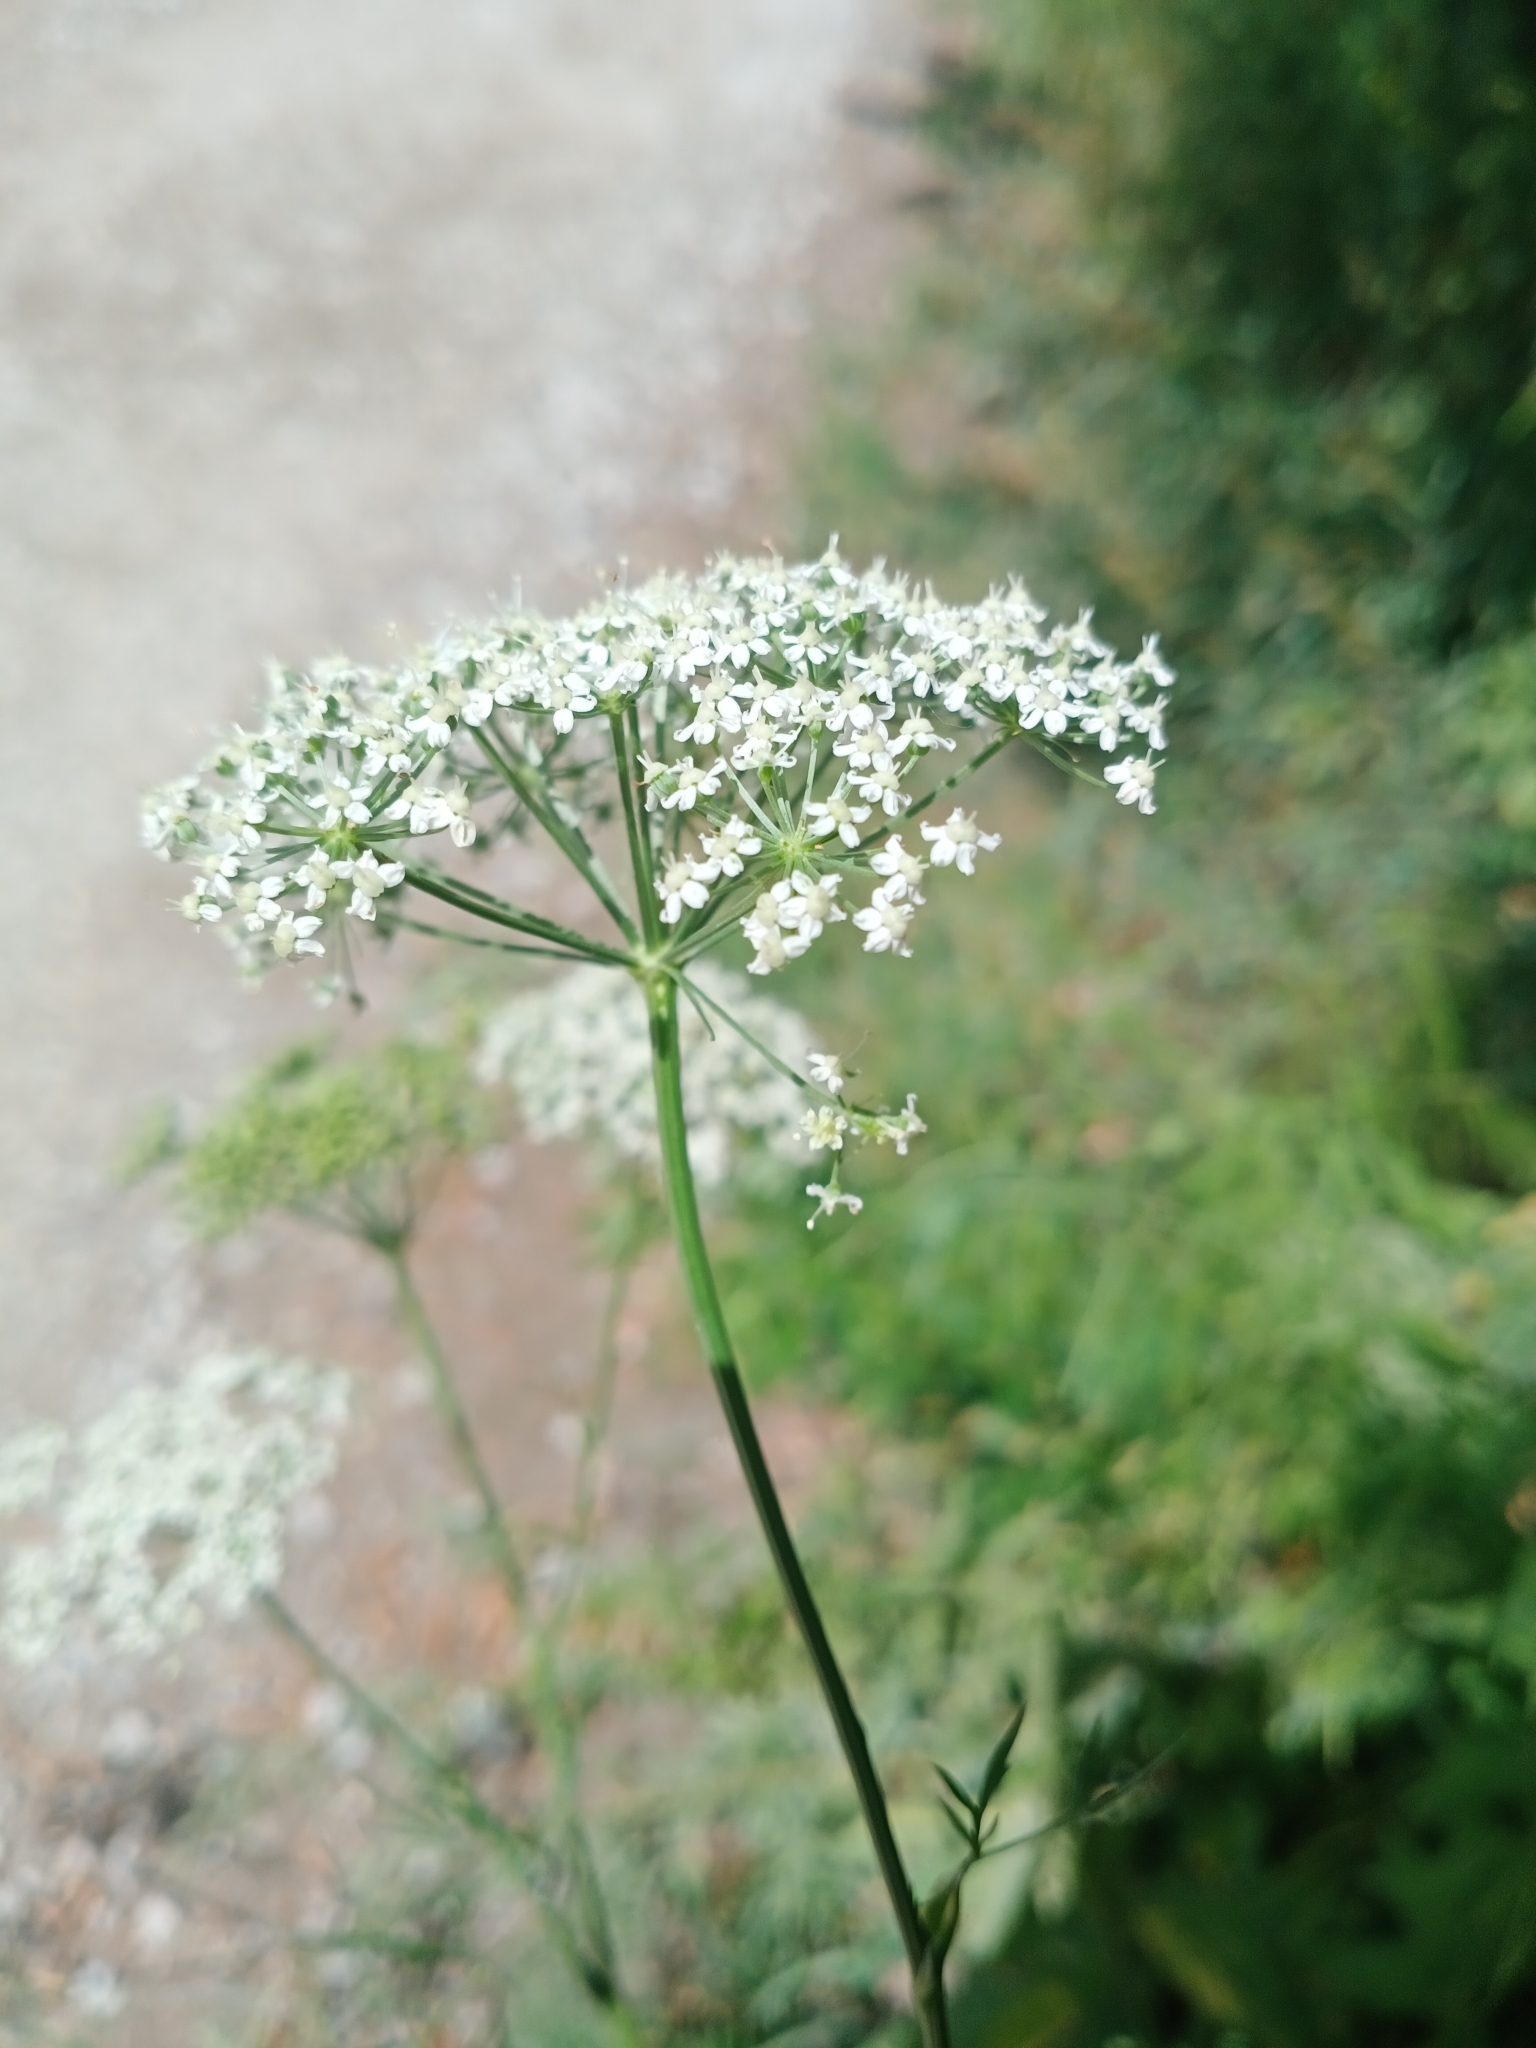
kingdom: Plantae
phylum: Tracheophyta
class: Magnoliopsida
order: Apiales
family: Apiaceae
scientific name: Apiaceae
